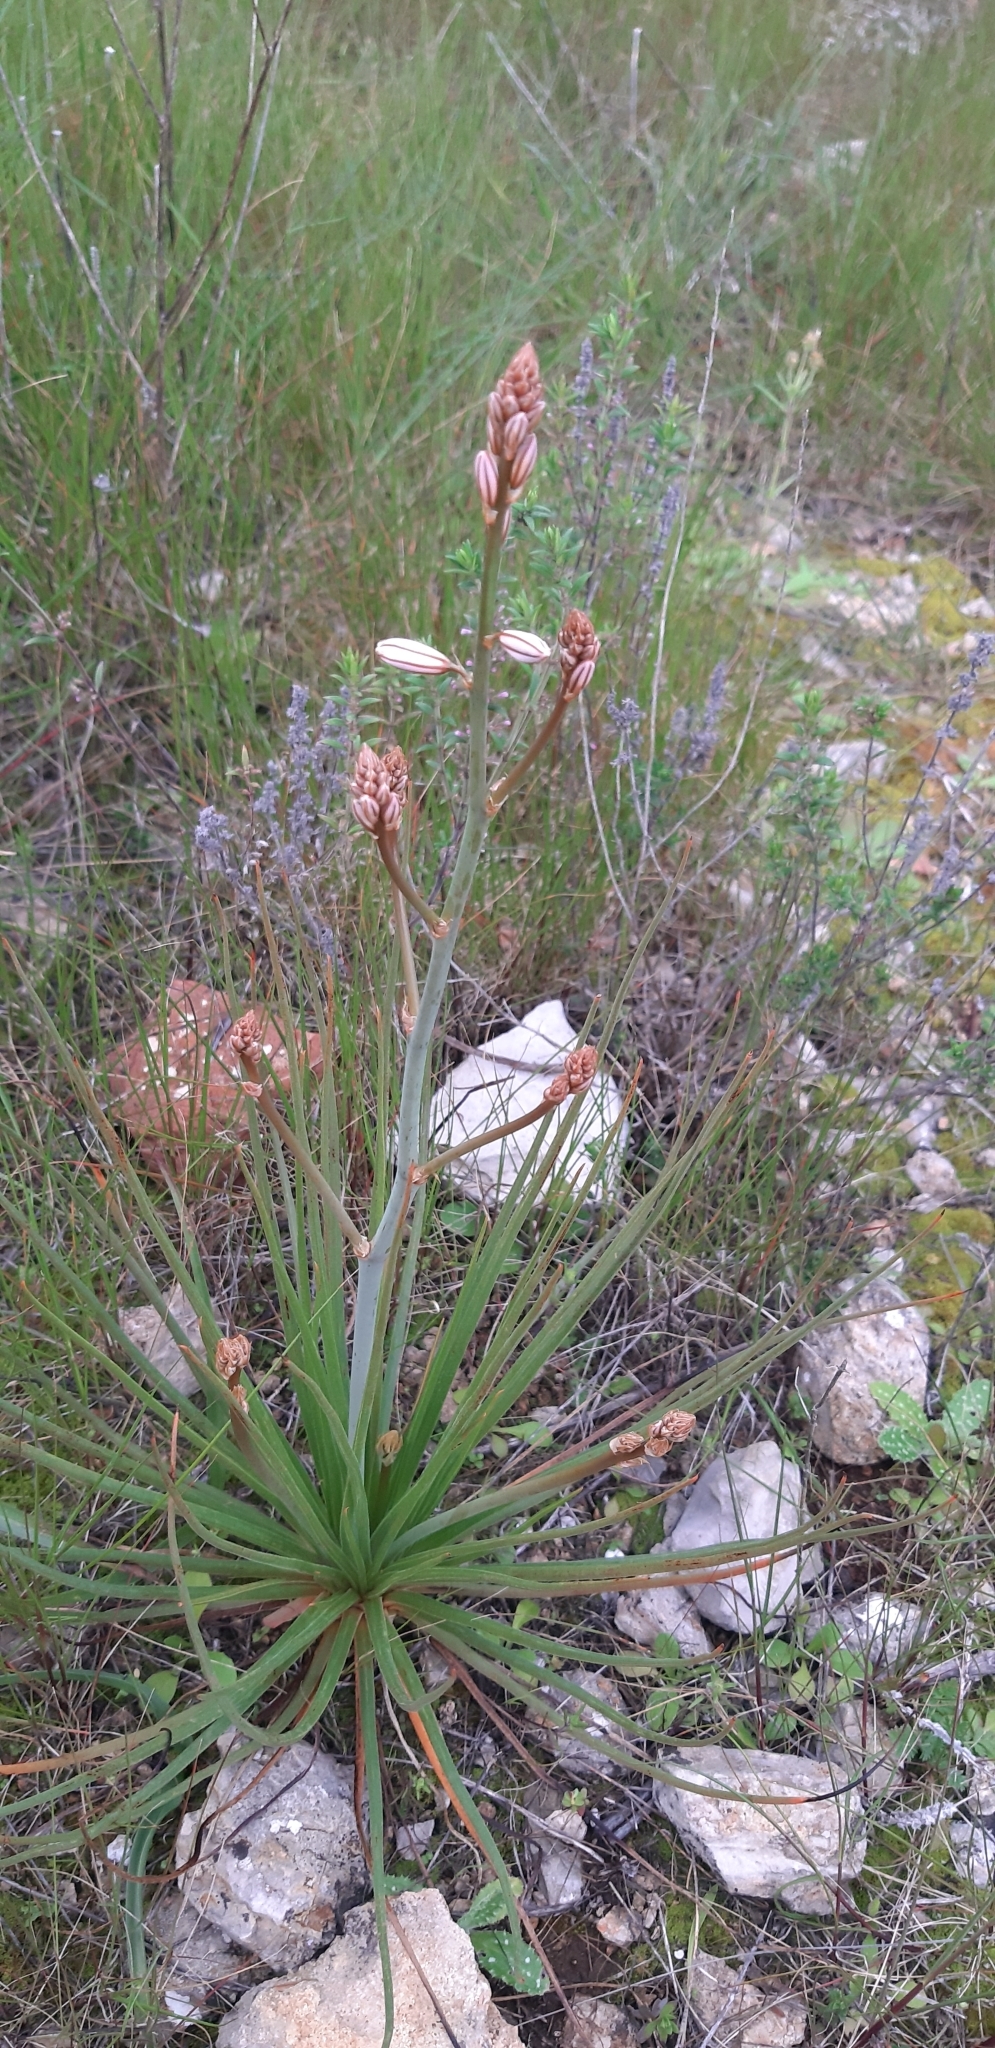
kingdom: Plantae
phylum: Tracheophyta
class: Liliopsida
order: Asparagales
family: Asphodelaceae
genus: Asphodelus
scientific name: Asphodelus fistulosus
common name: Onionweed
